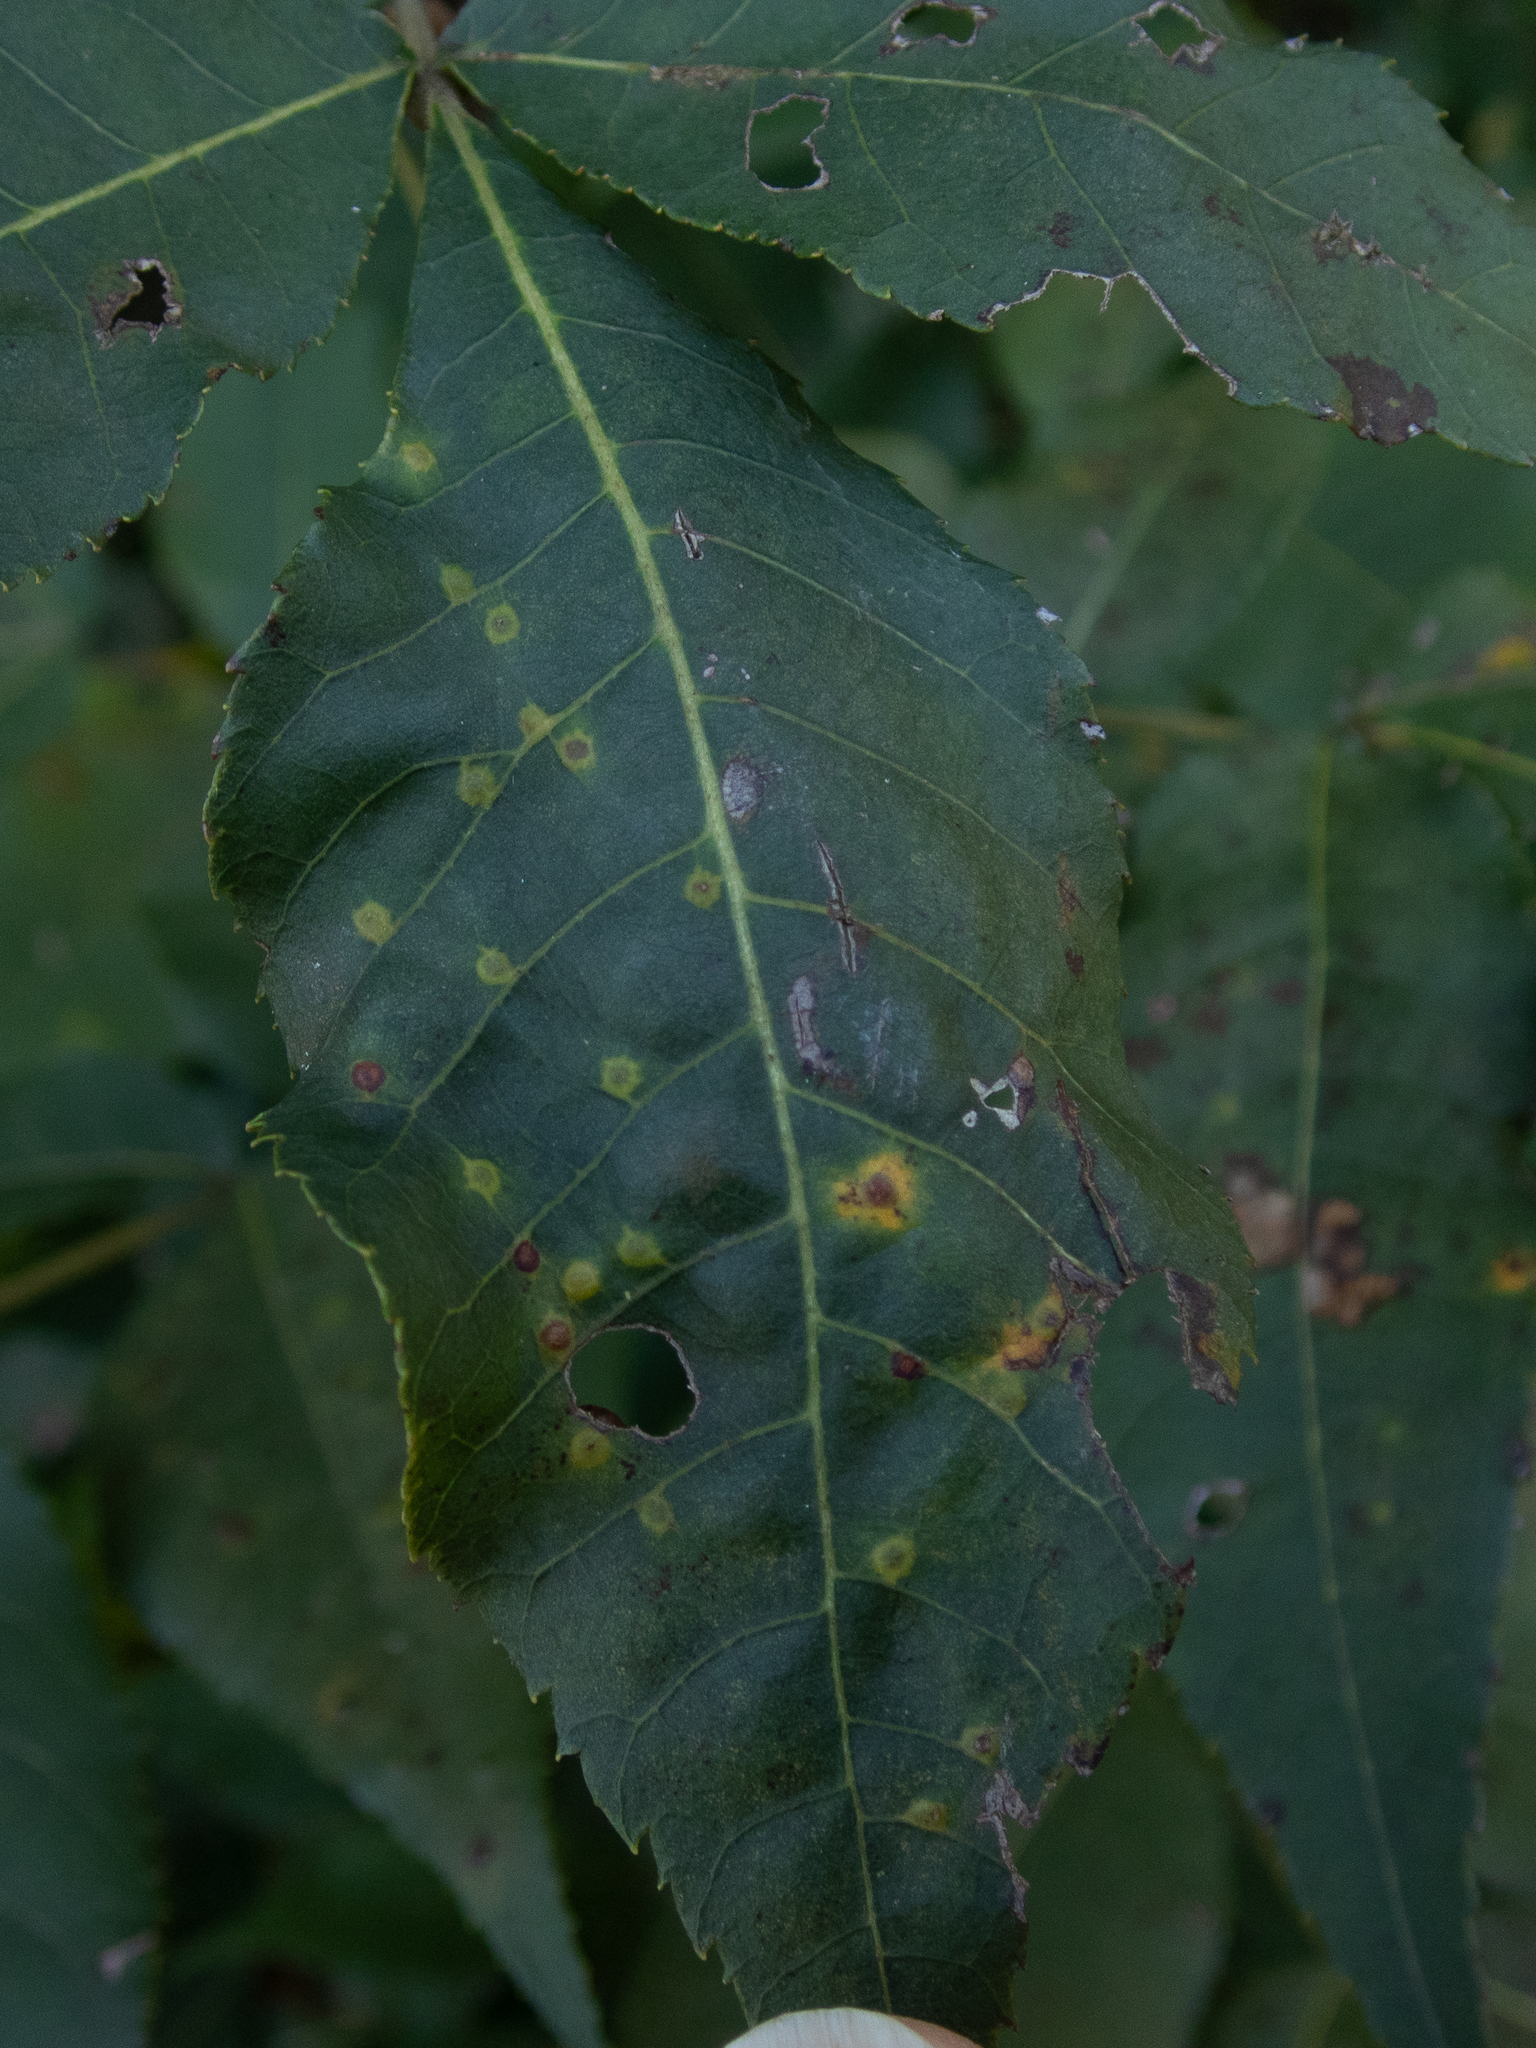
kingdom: Animalia
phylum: Arthropoda
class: Insecta
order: Diptera
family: Cecidomyiidae
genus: Caryomyia
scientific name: Caryomyia thompsoni
